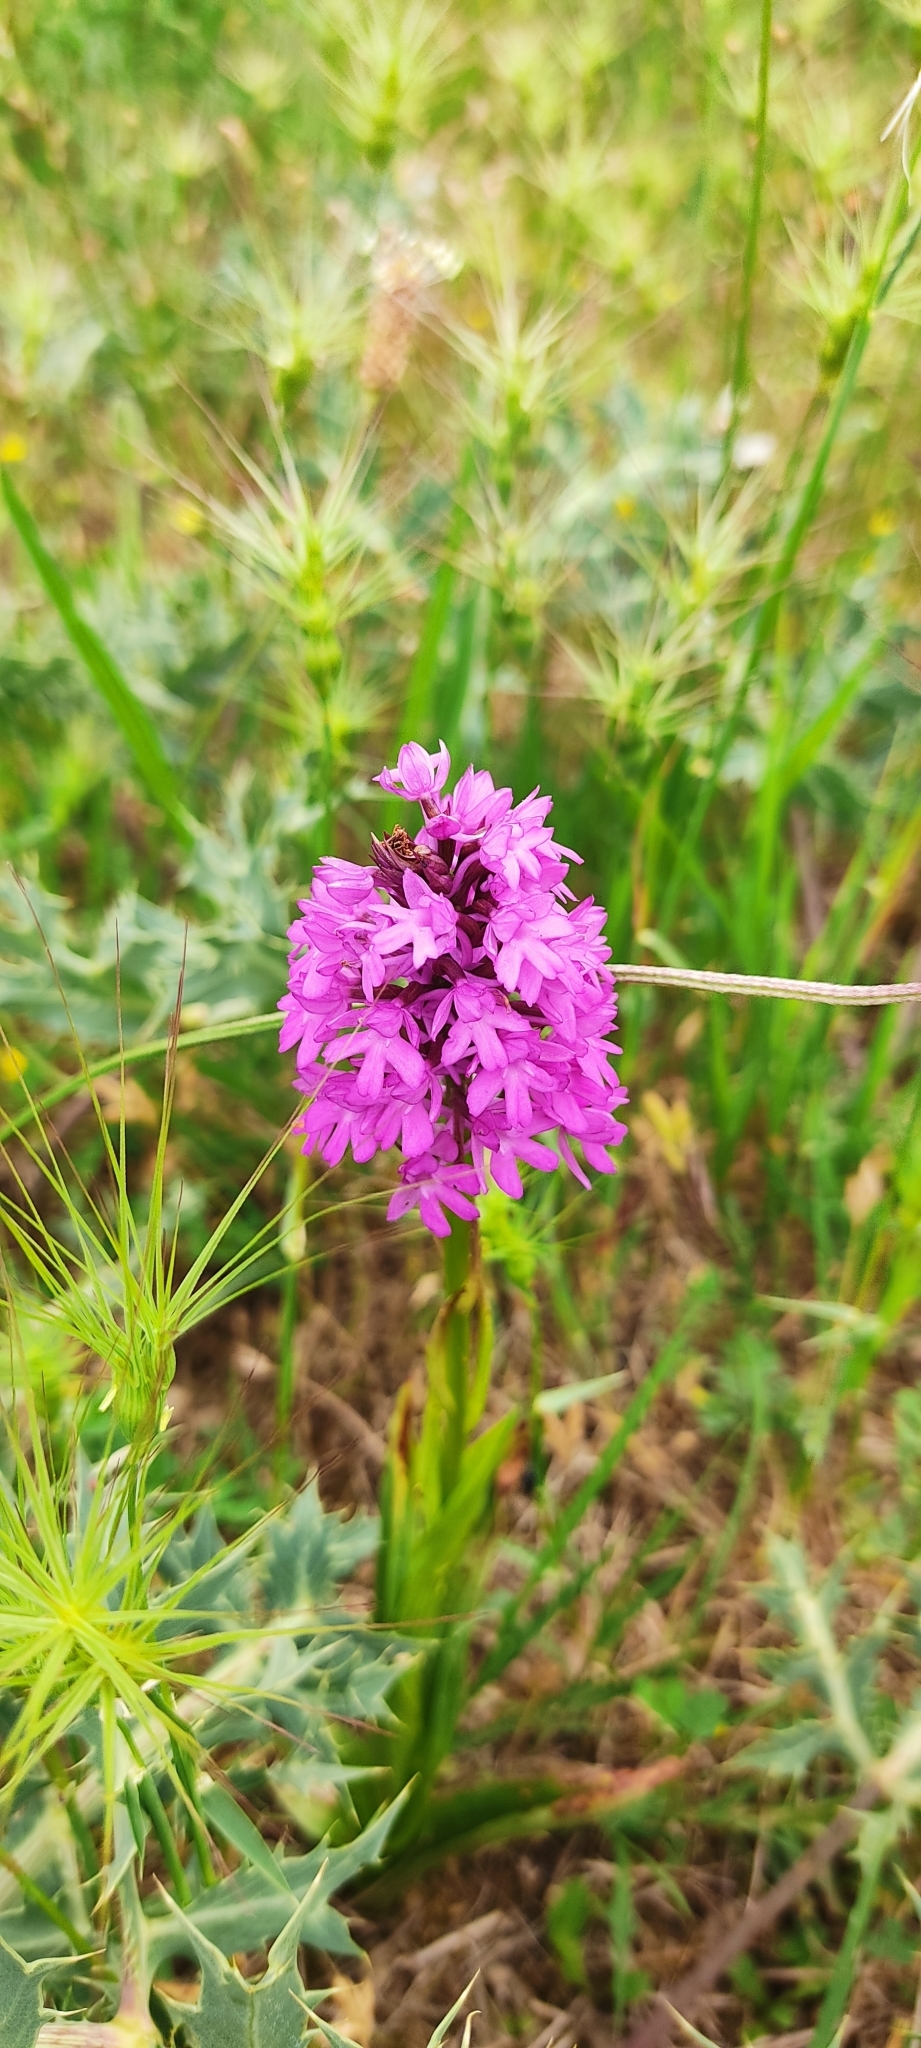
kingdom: Plantae
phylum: Tracheophyta
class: Liliopsida
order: Asparagales
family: Orchidaceae
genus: Anacamptis
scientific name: Anacamptis pyramidalis
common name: Pyramidal orchid
